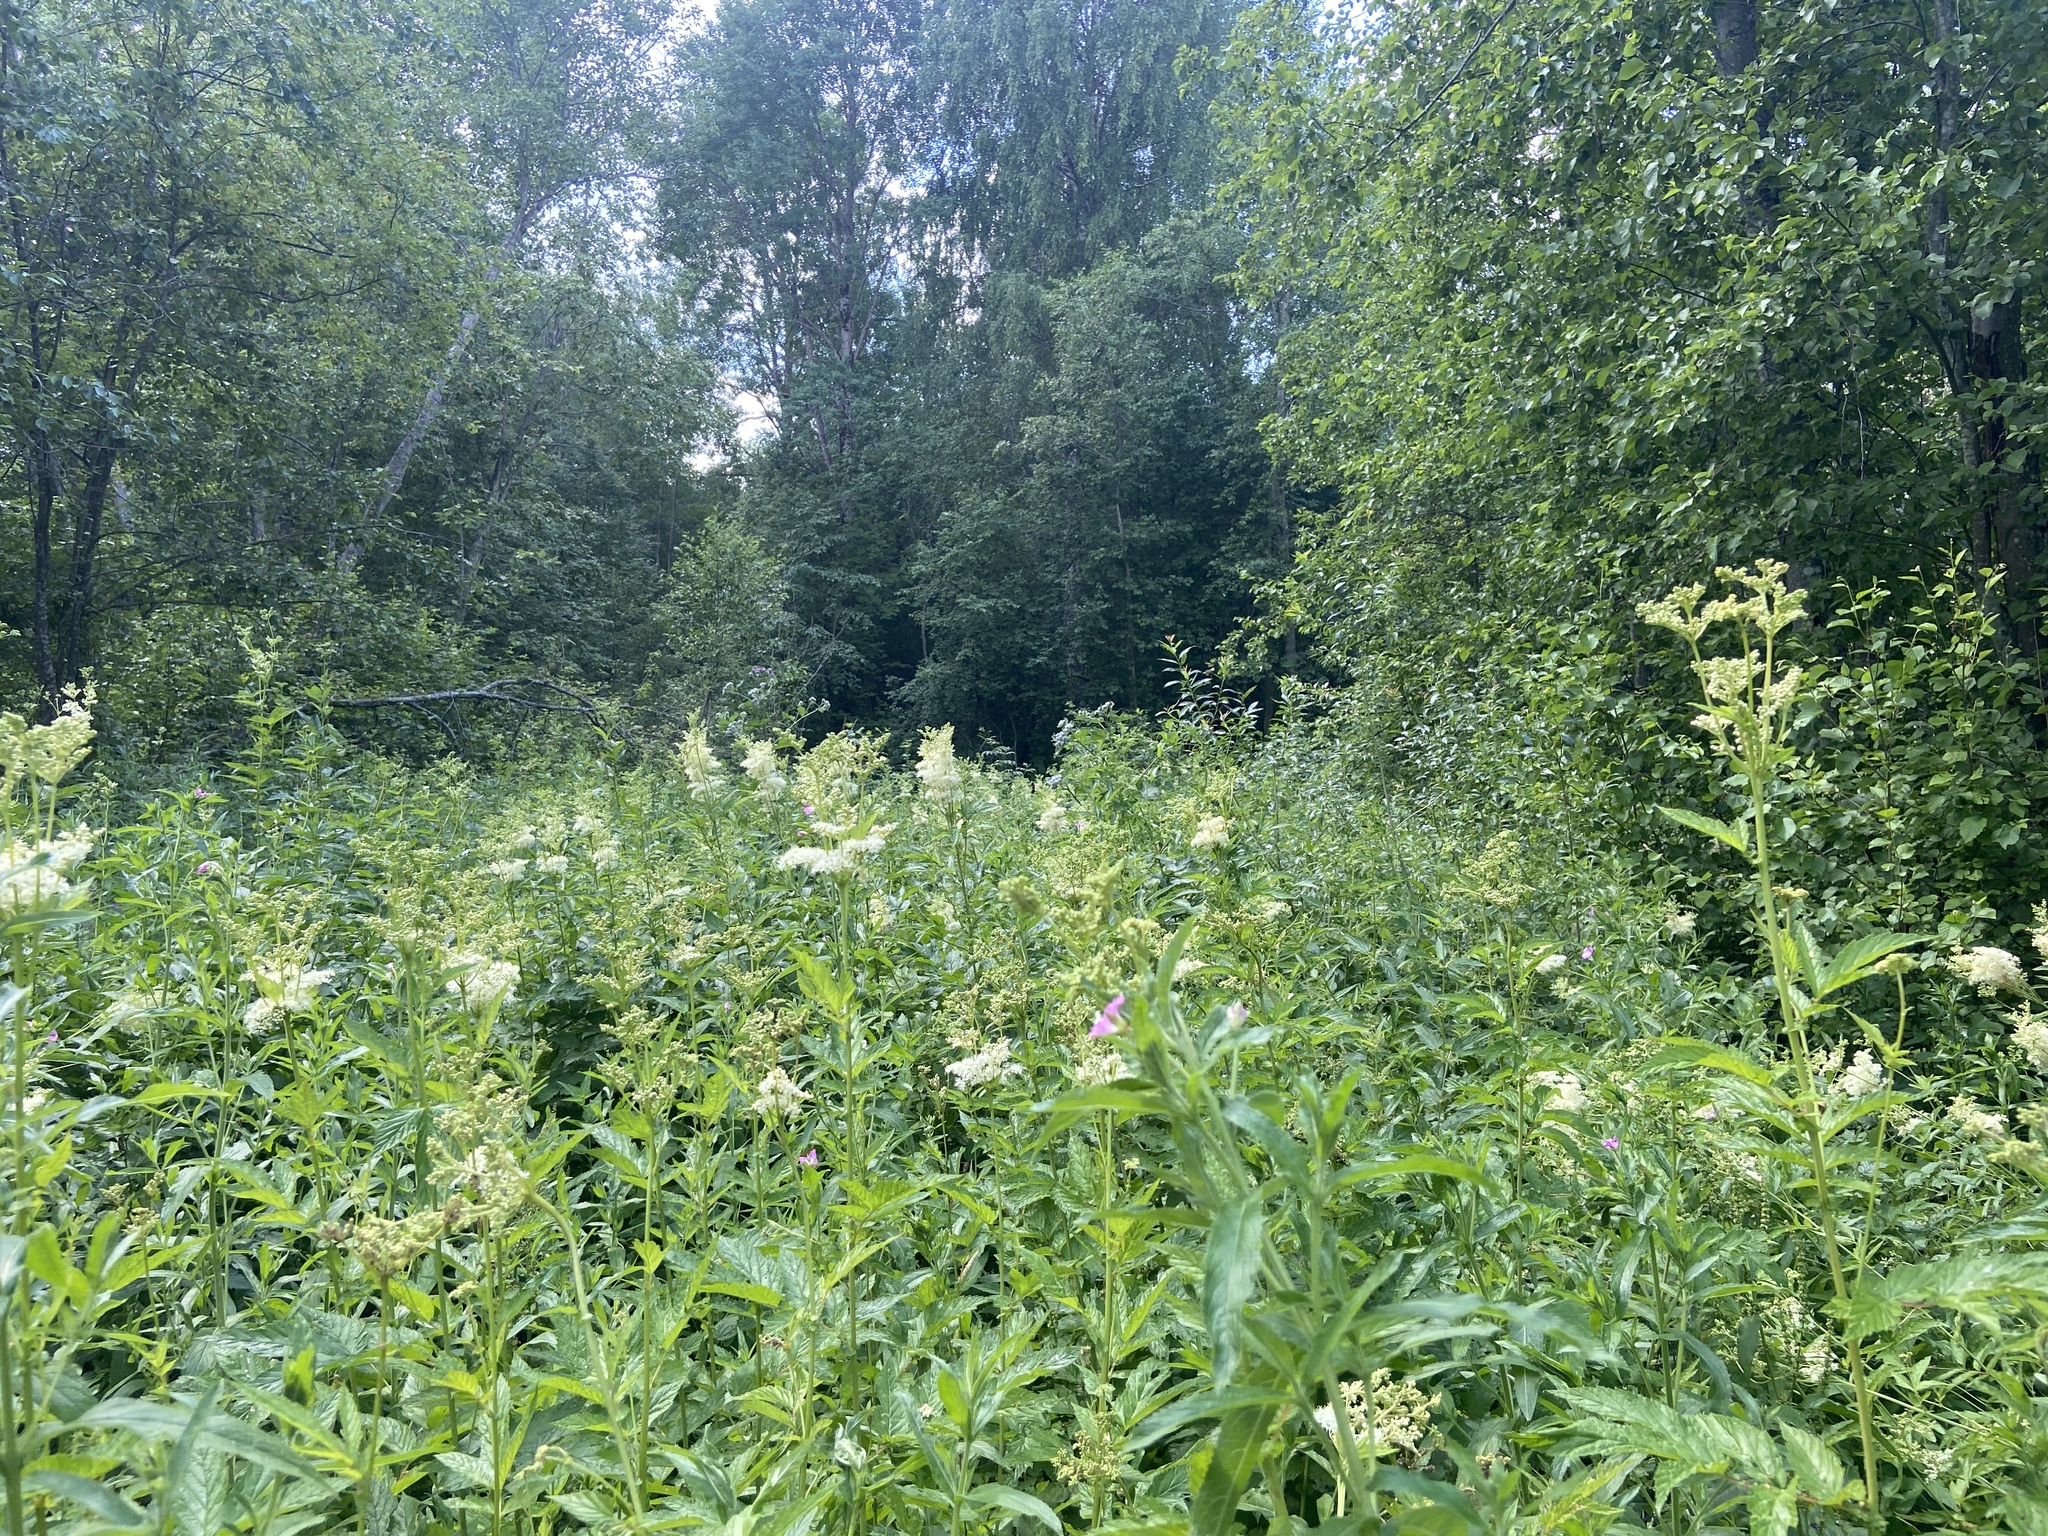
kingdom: Plantae
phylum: Tracheophyta
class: Magnoliopsida
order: Rosales
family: Rosaceae
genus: Filipendula
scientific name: Filipendula ulmaria
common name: Meadowsweet
